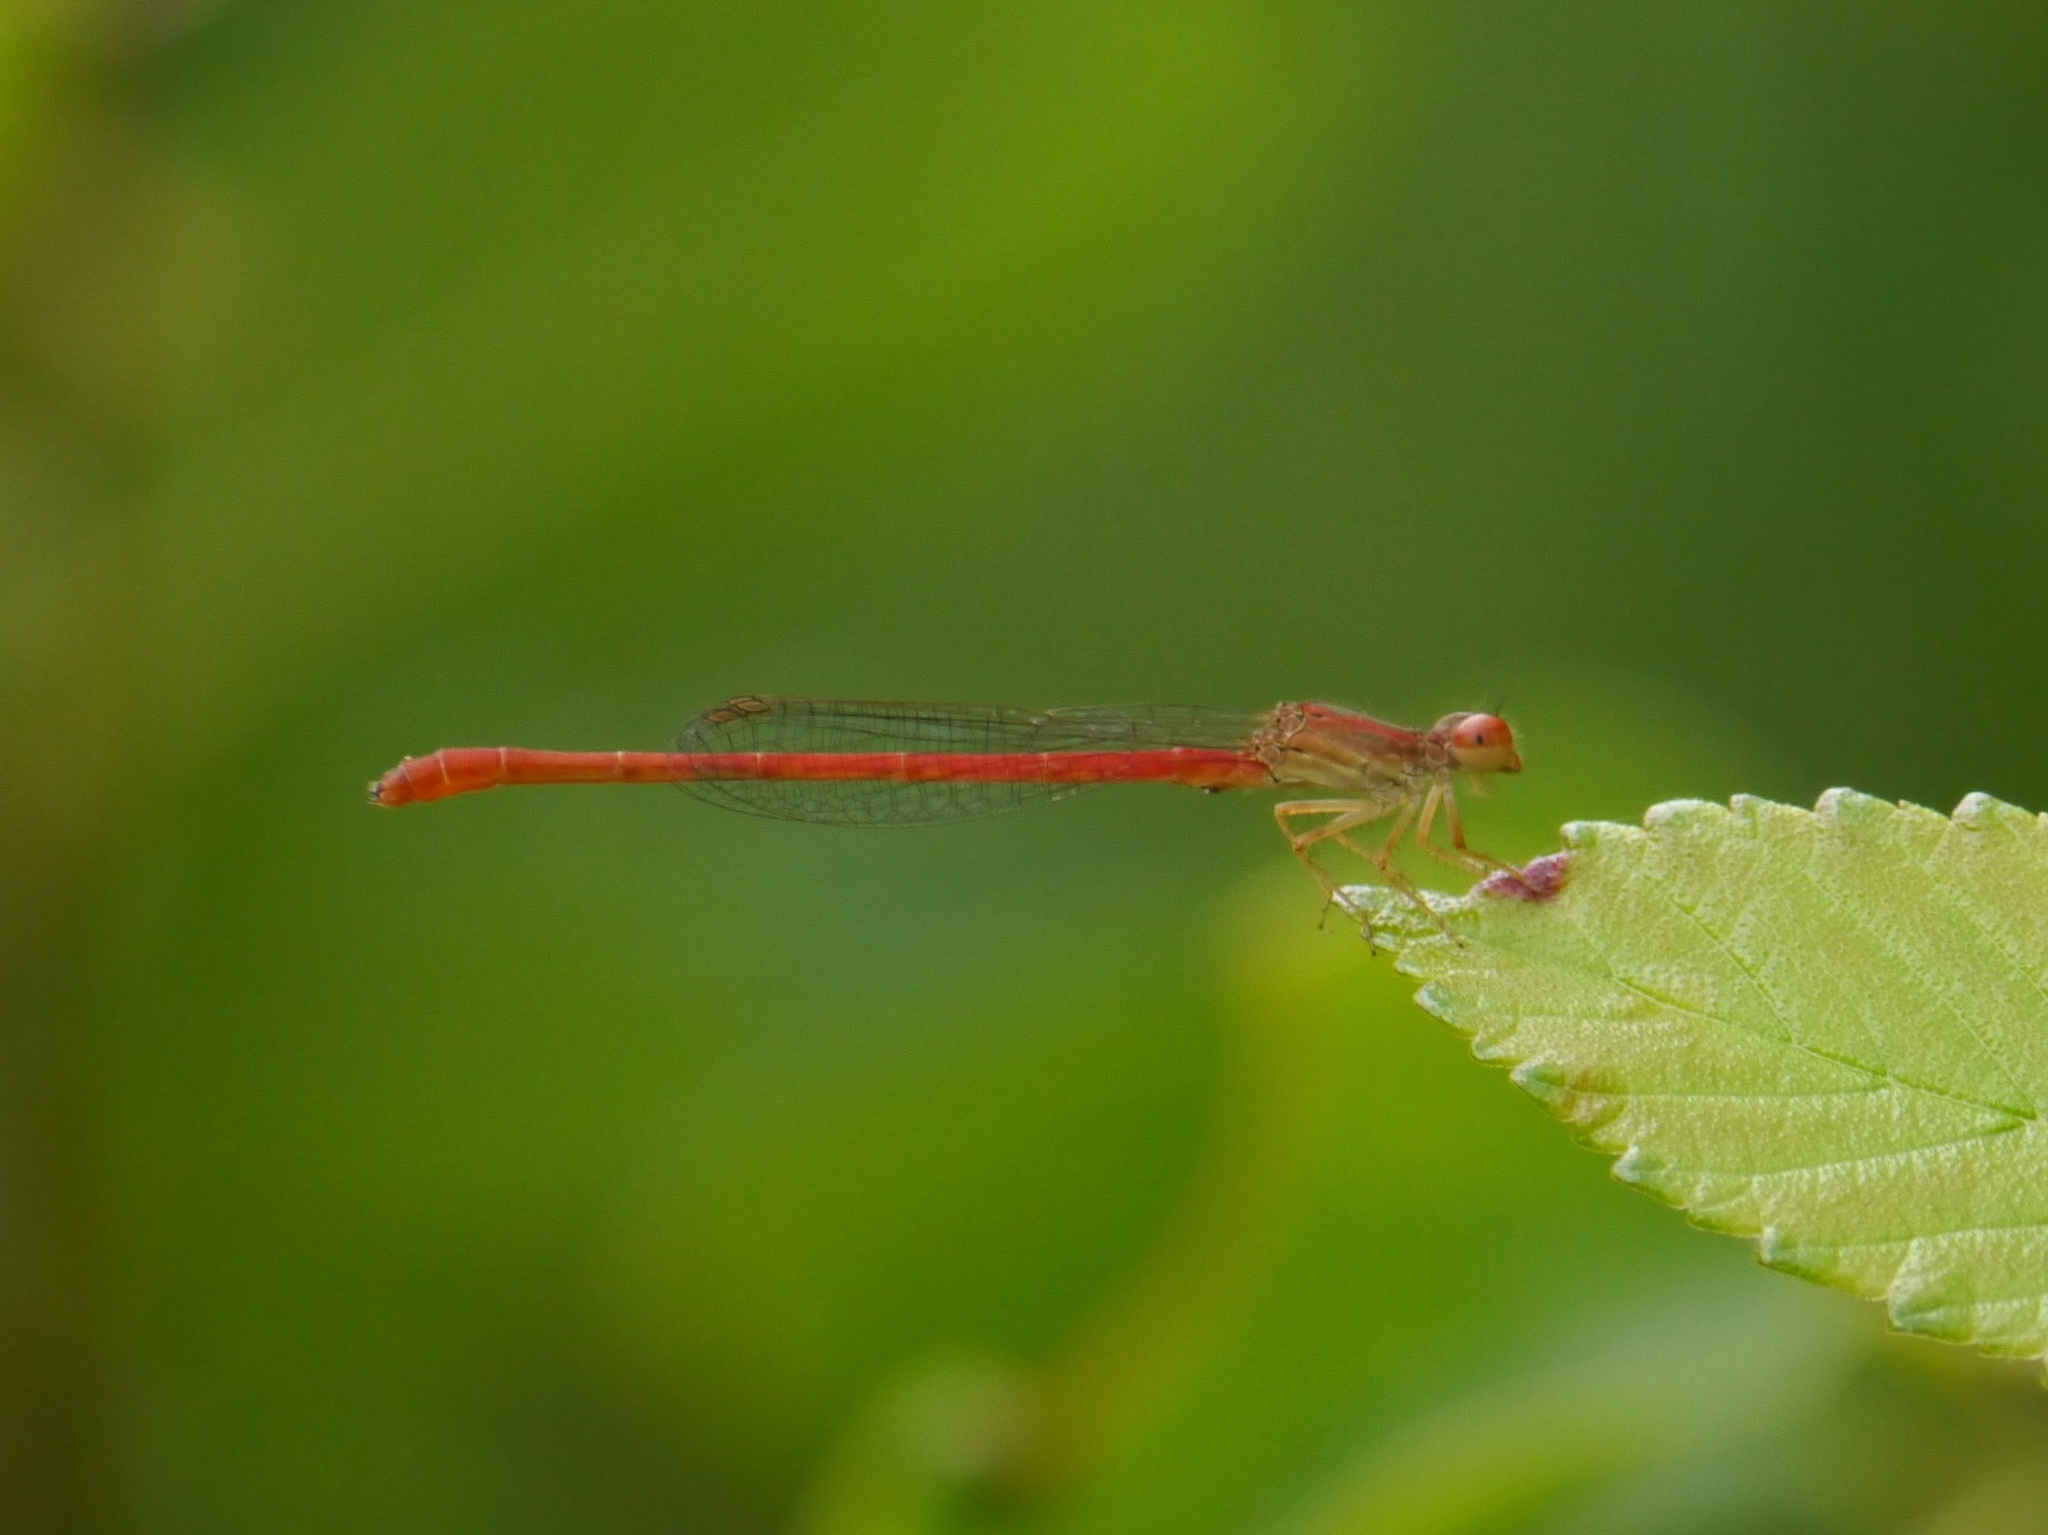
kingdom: Animalia
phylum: Arthropoda
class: Insecta
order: Odonata
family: Coenagrionidae
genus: Telebasis
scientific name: Telebasis salva
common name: Desert firetail
